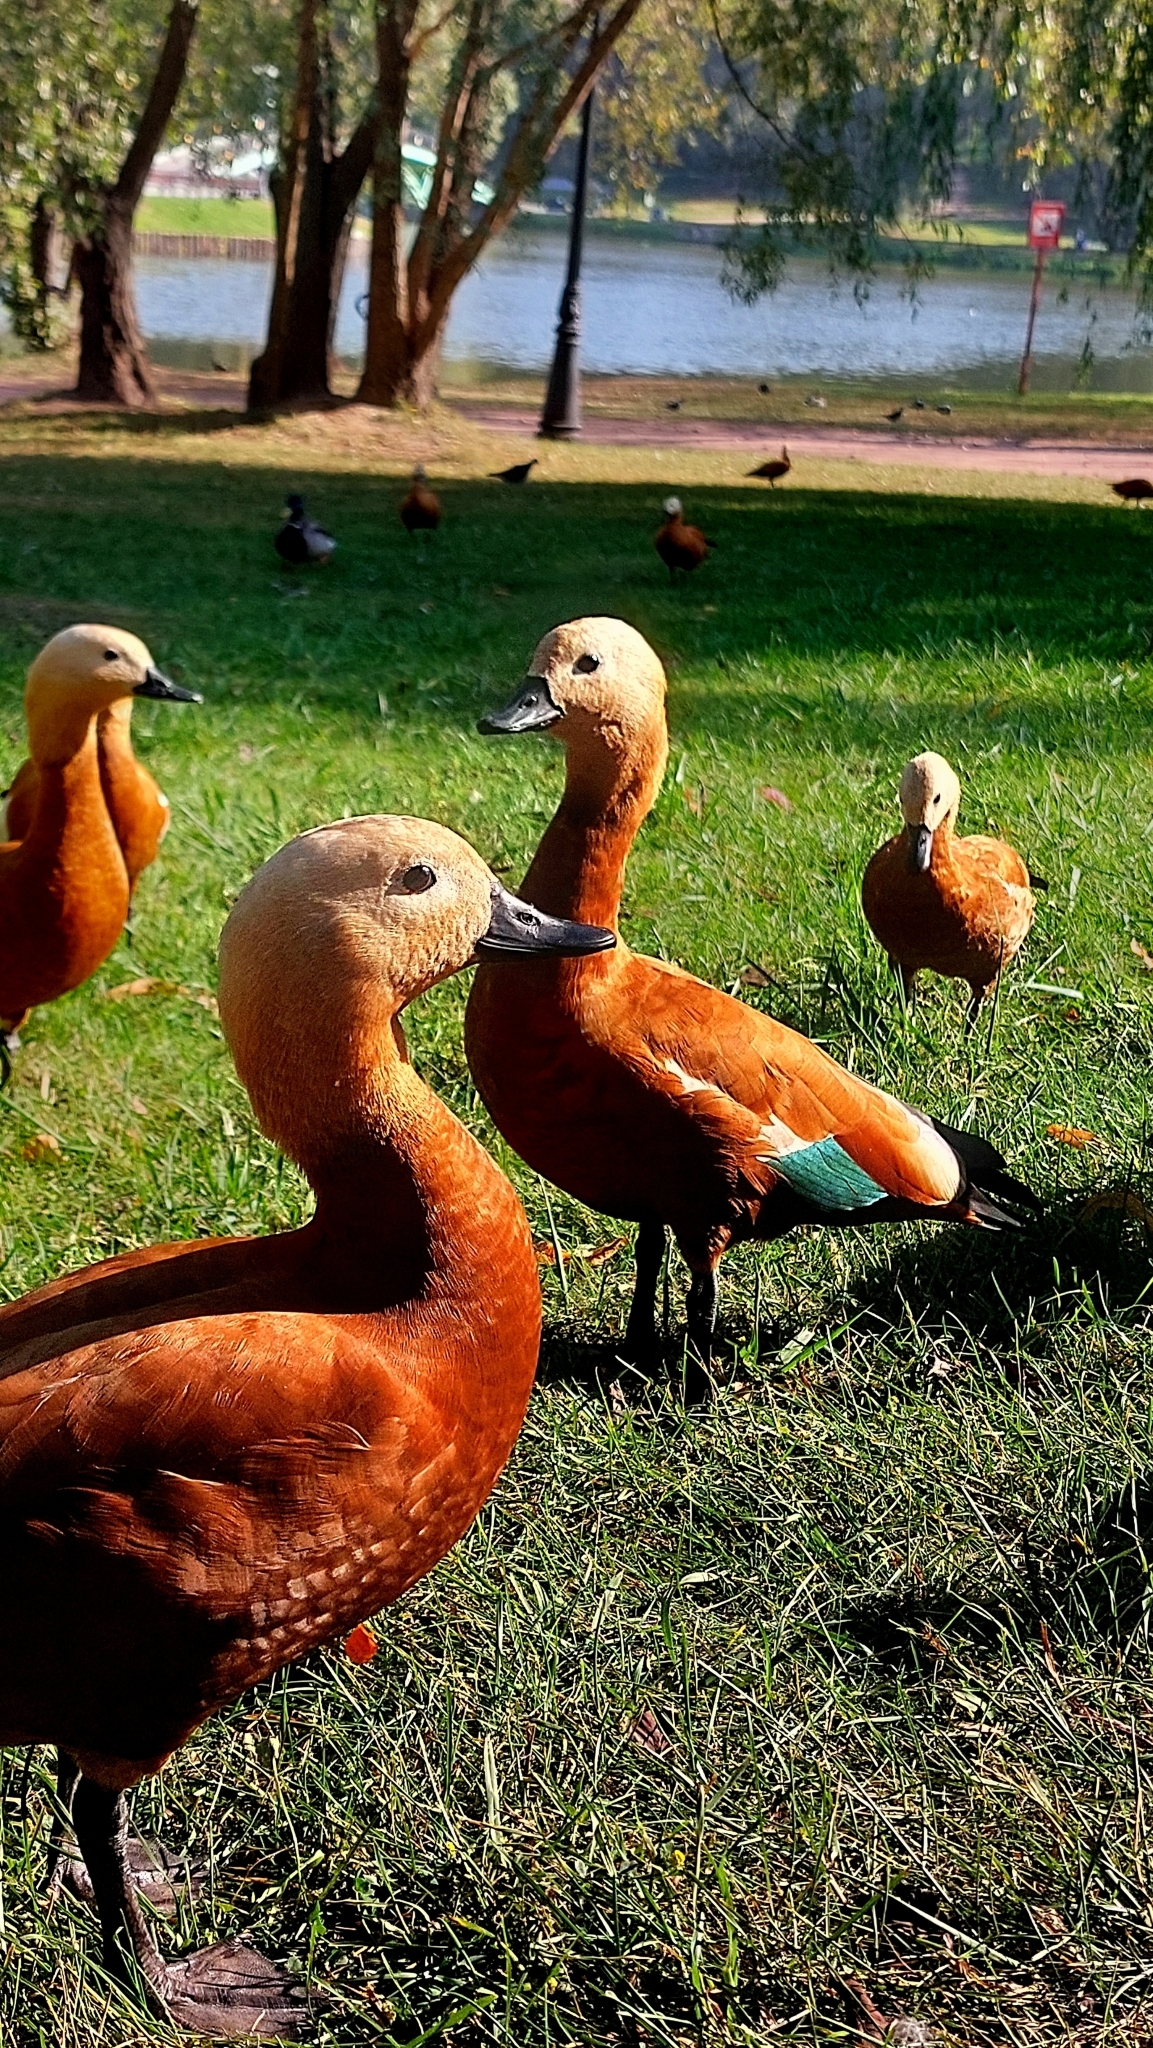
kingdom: Animalia
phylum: Chordata
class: Aves
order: Anseriformes
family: Anatidae
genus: Tadorna
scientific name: Tadorna ferruginea
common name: Ruddy shelduck
